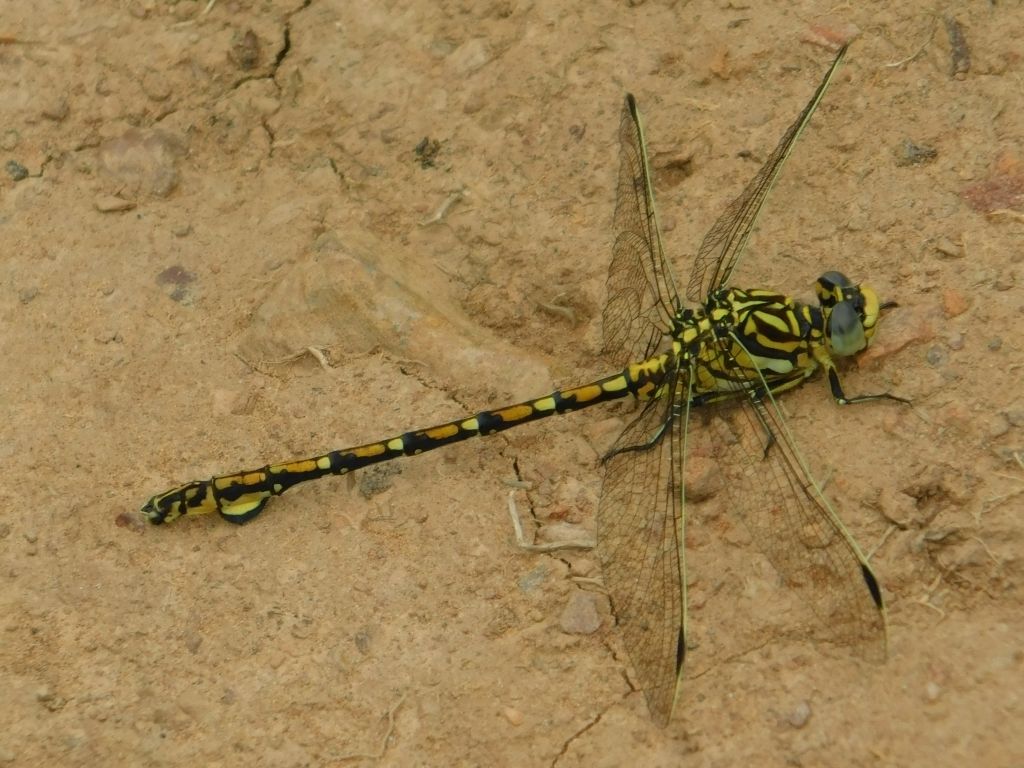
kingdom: Animalia
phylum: Arthropoda
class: Insecta
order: Odonata
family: Gomphidae
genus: Ceratogomphus
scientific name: Ceratogomphus pictus
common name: Common thorntail
